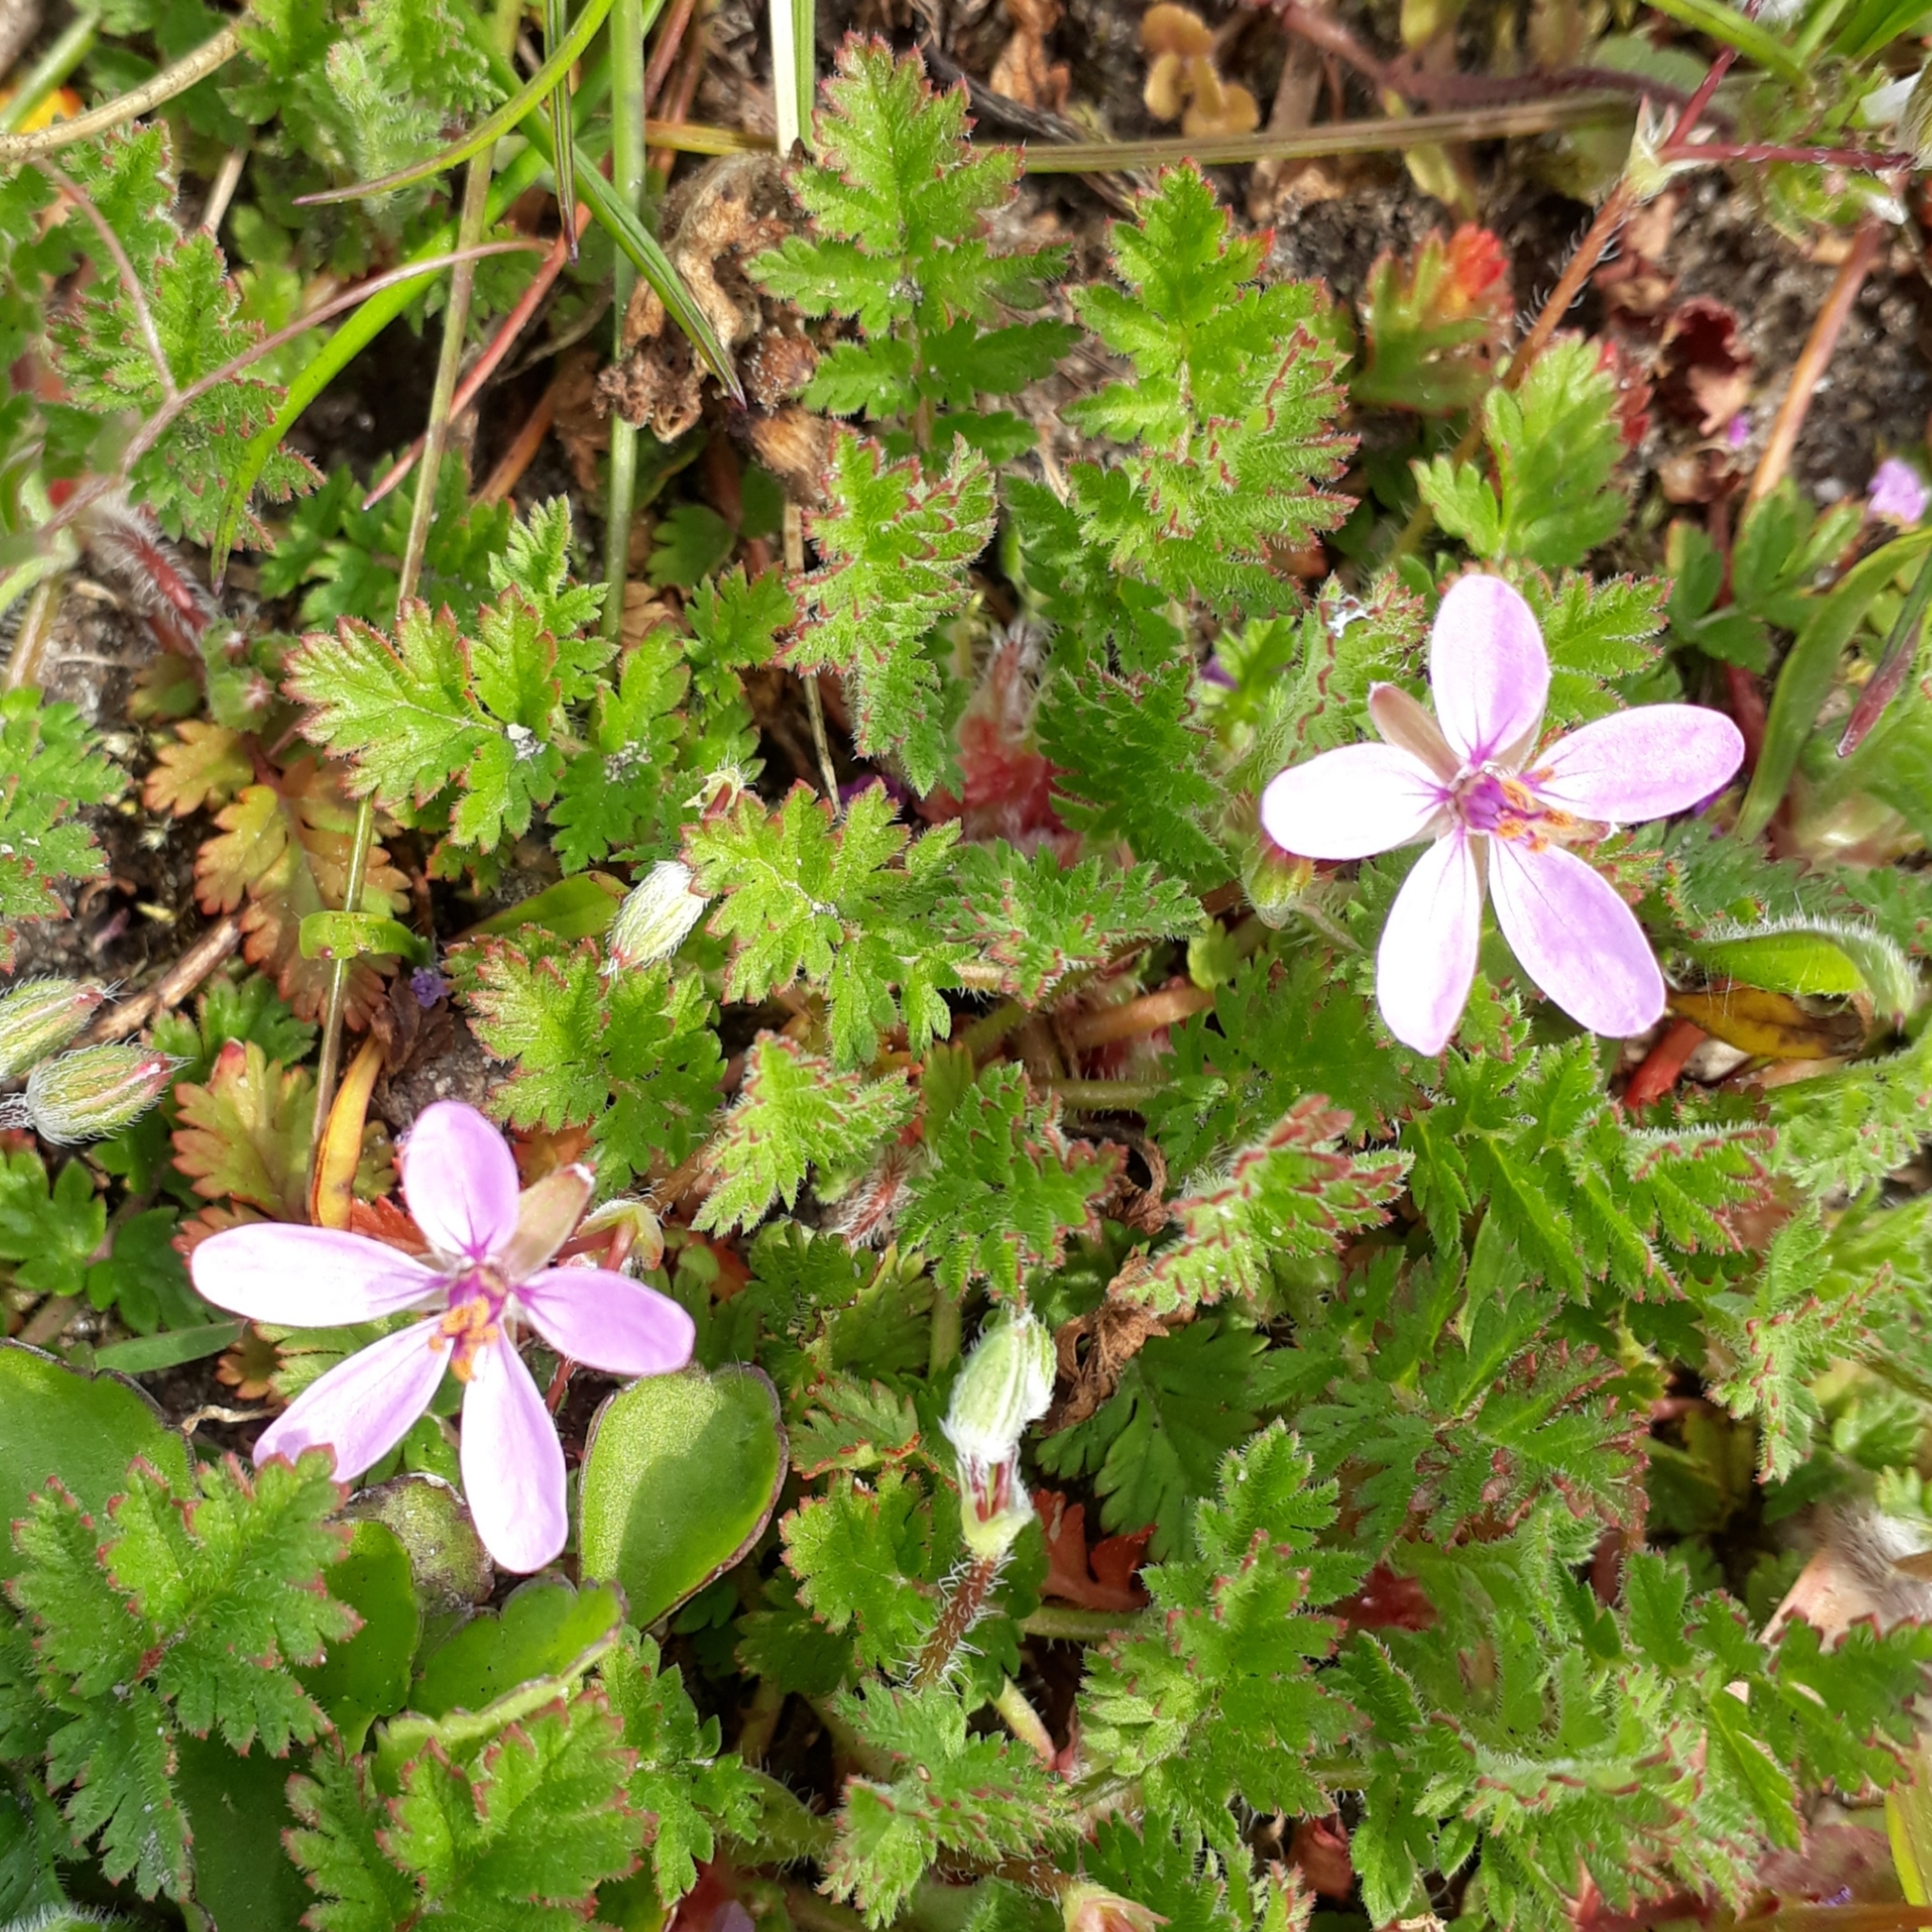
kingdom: Plantae
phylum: Tracheophyta
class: Magnoliopsida
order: Geraniales
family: Geraniaceae
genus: Erodium
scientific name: Erodium cicutarium
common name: Common stork's-bill
